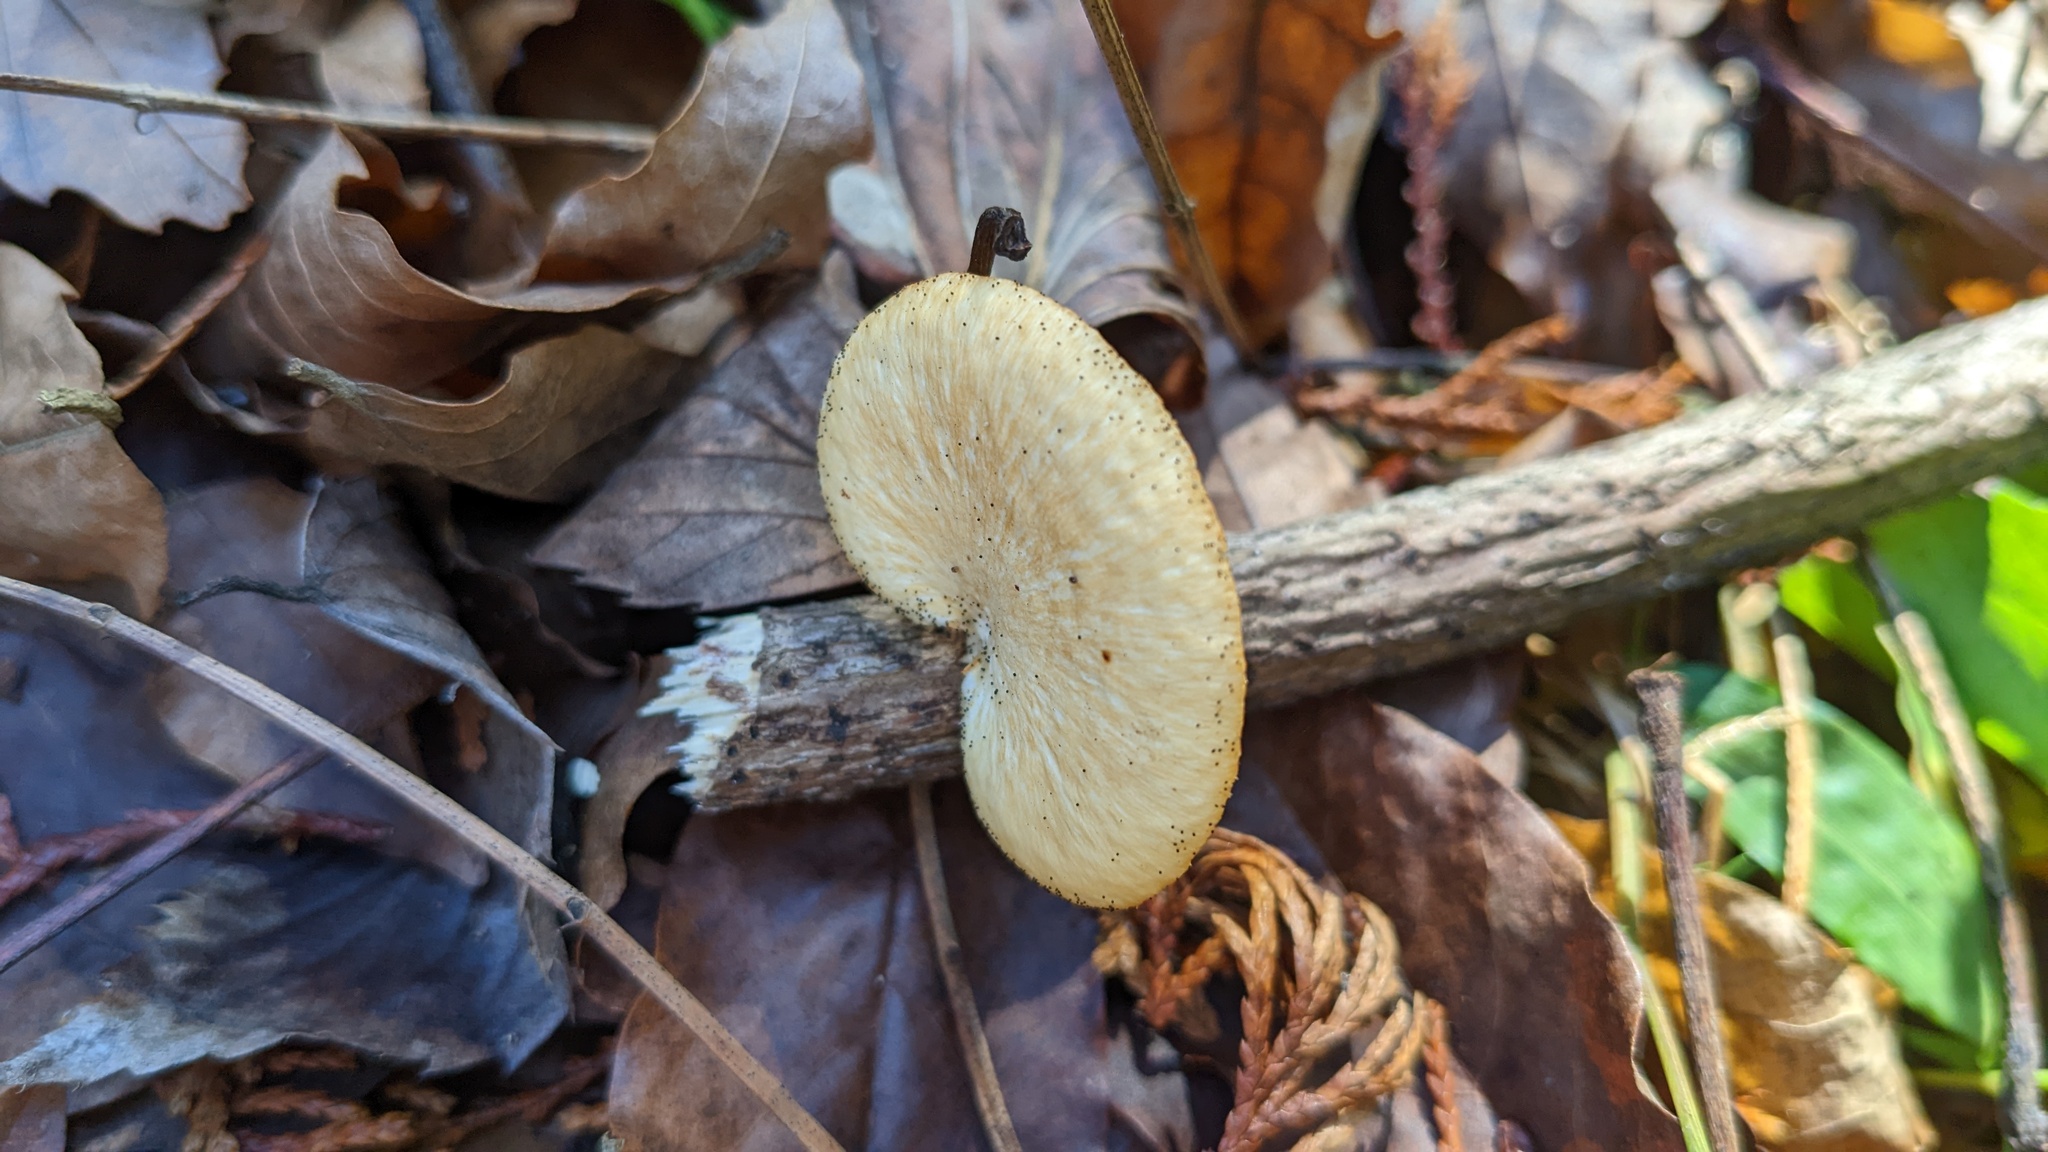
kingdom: Fungi
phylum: Basidiomycota
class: Agaricomycetes
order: Polyporales
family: Polyporaceae
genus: Neofavolus
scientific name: Neofavolus alveolaris
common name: Hexagonal-pored polypore
